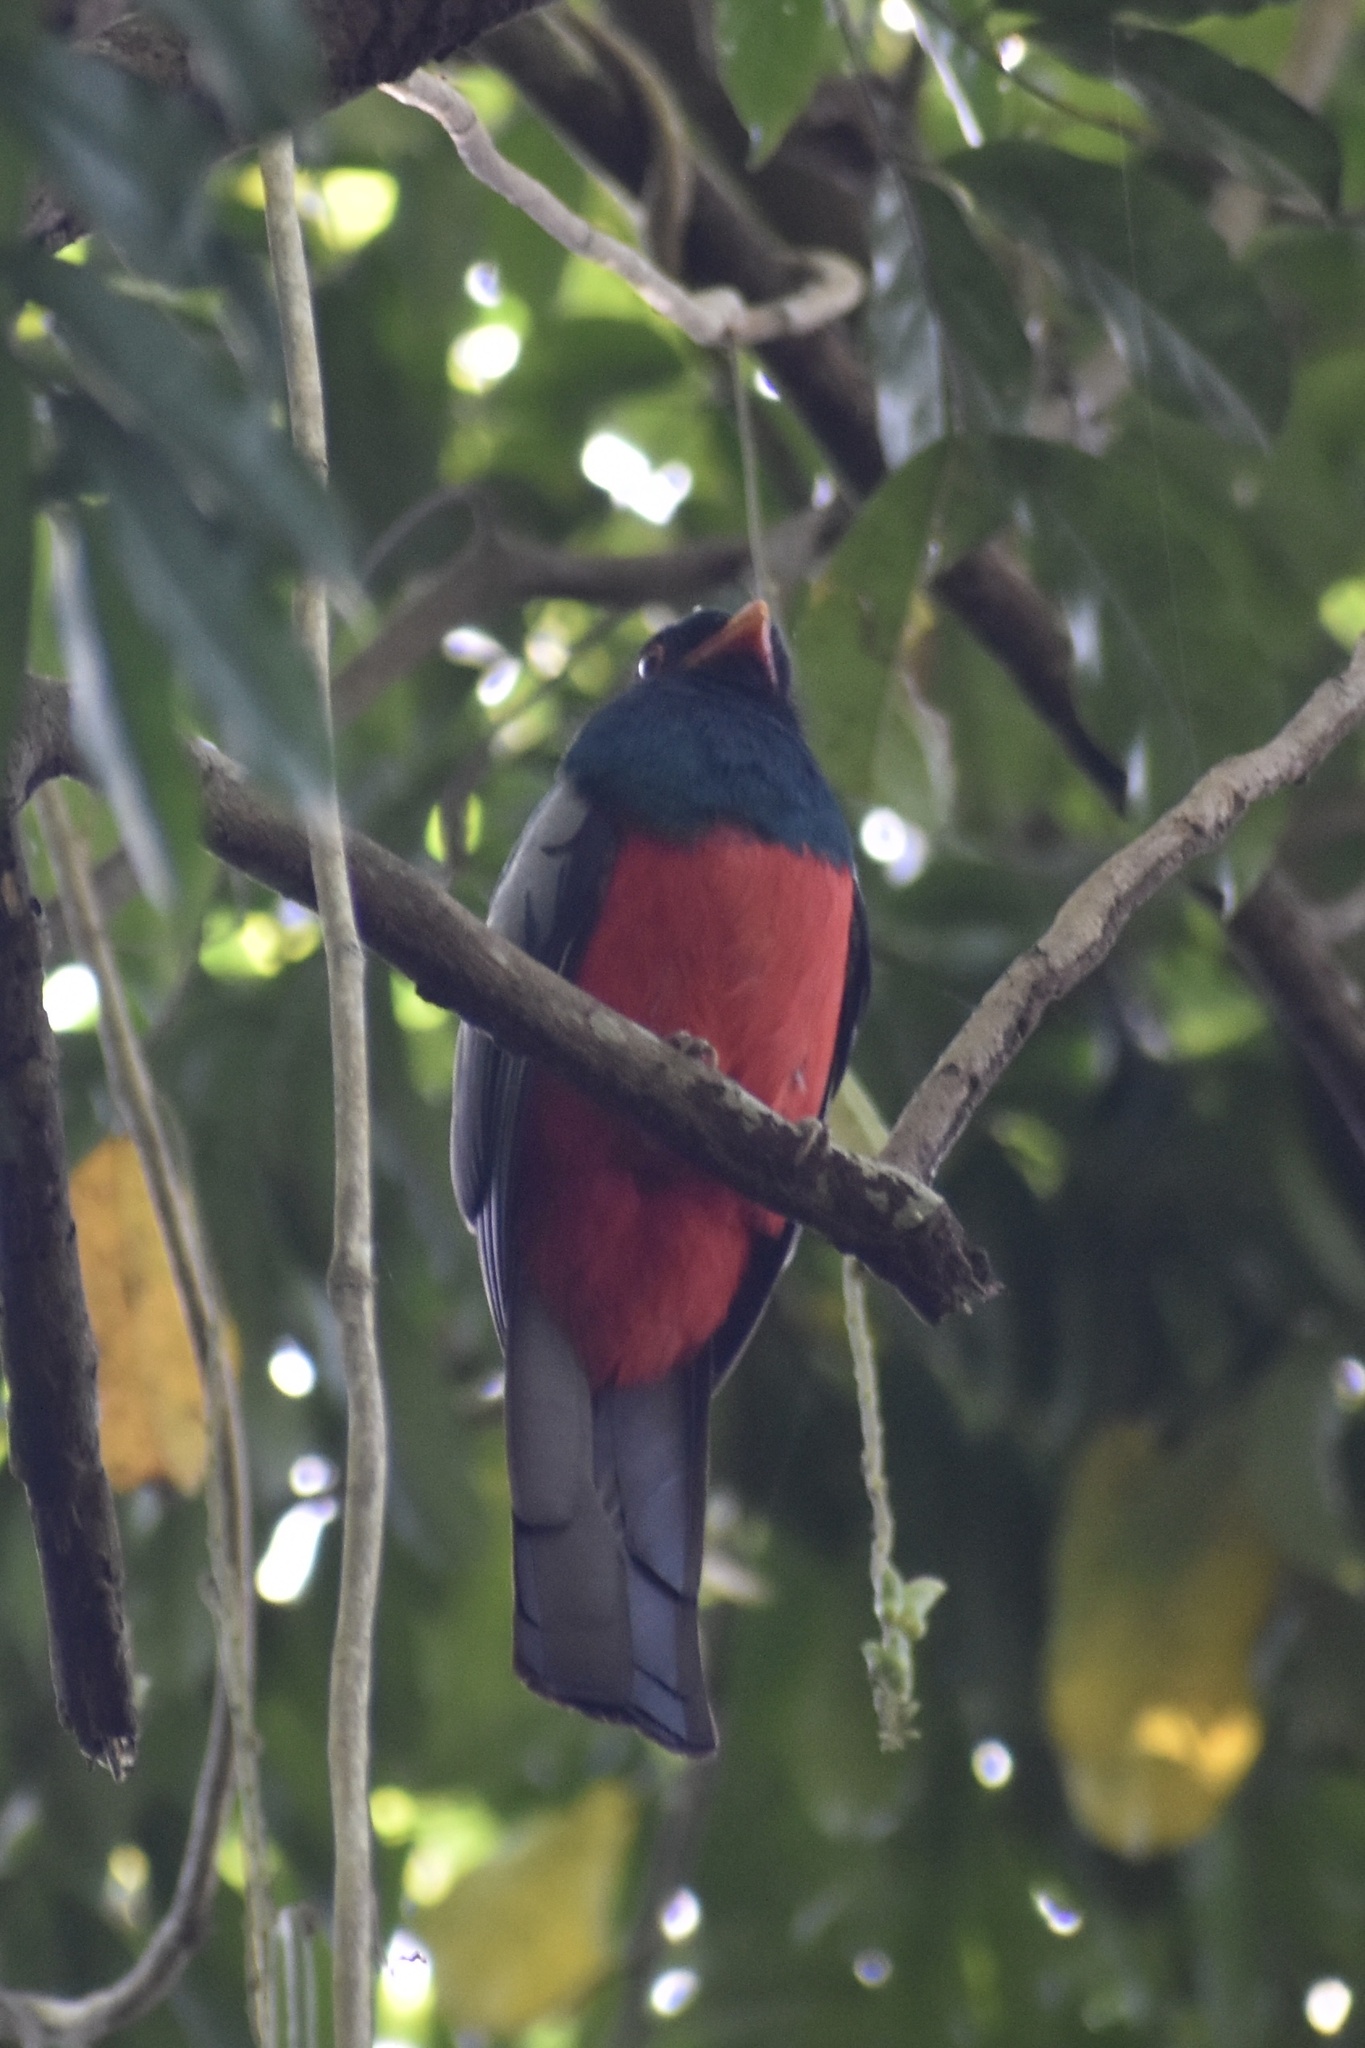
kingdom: Animalia
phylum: Chordata
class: Aves
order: Trogoniformes
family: Trogonidae
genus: Trogon
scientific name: Trogon massena
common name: Slaty-tailed trogon
